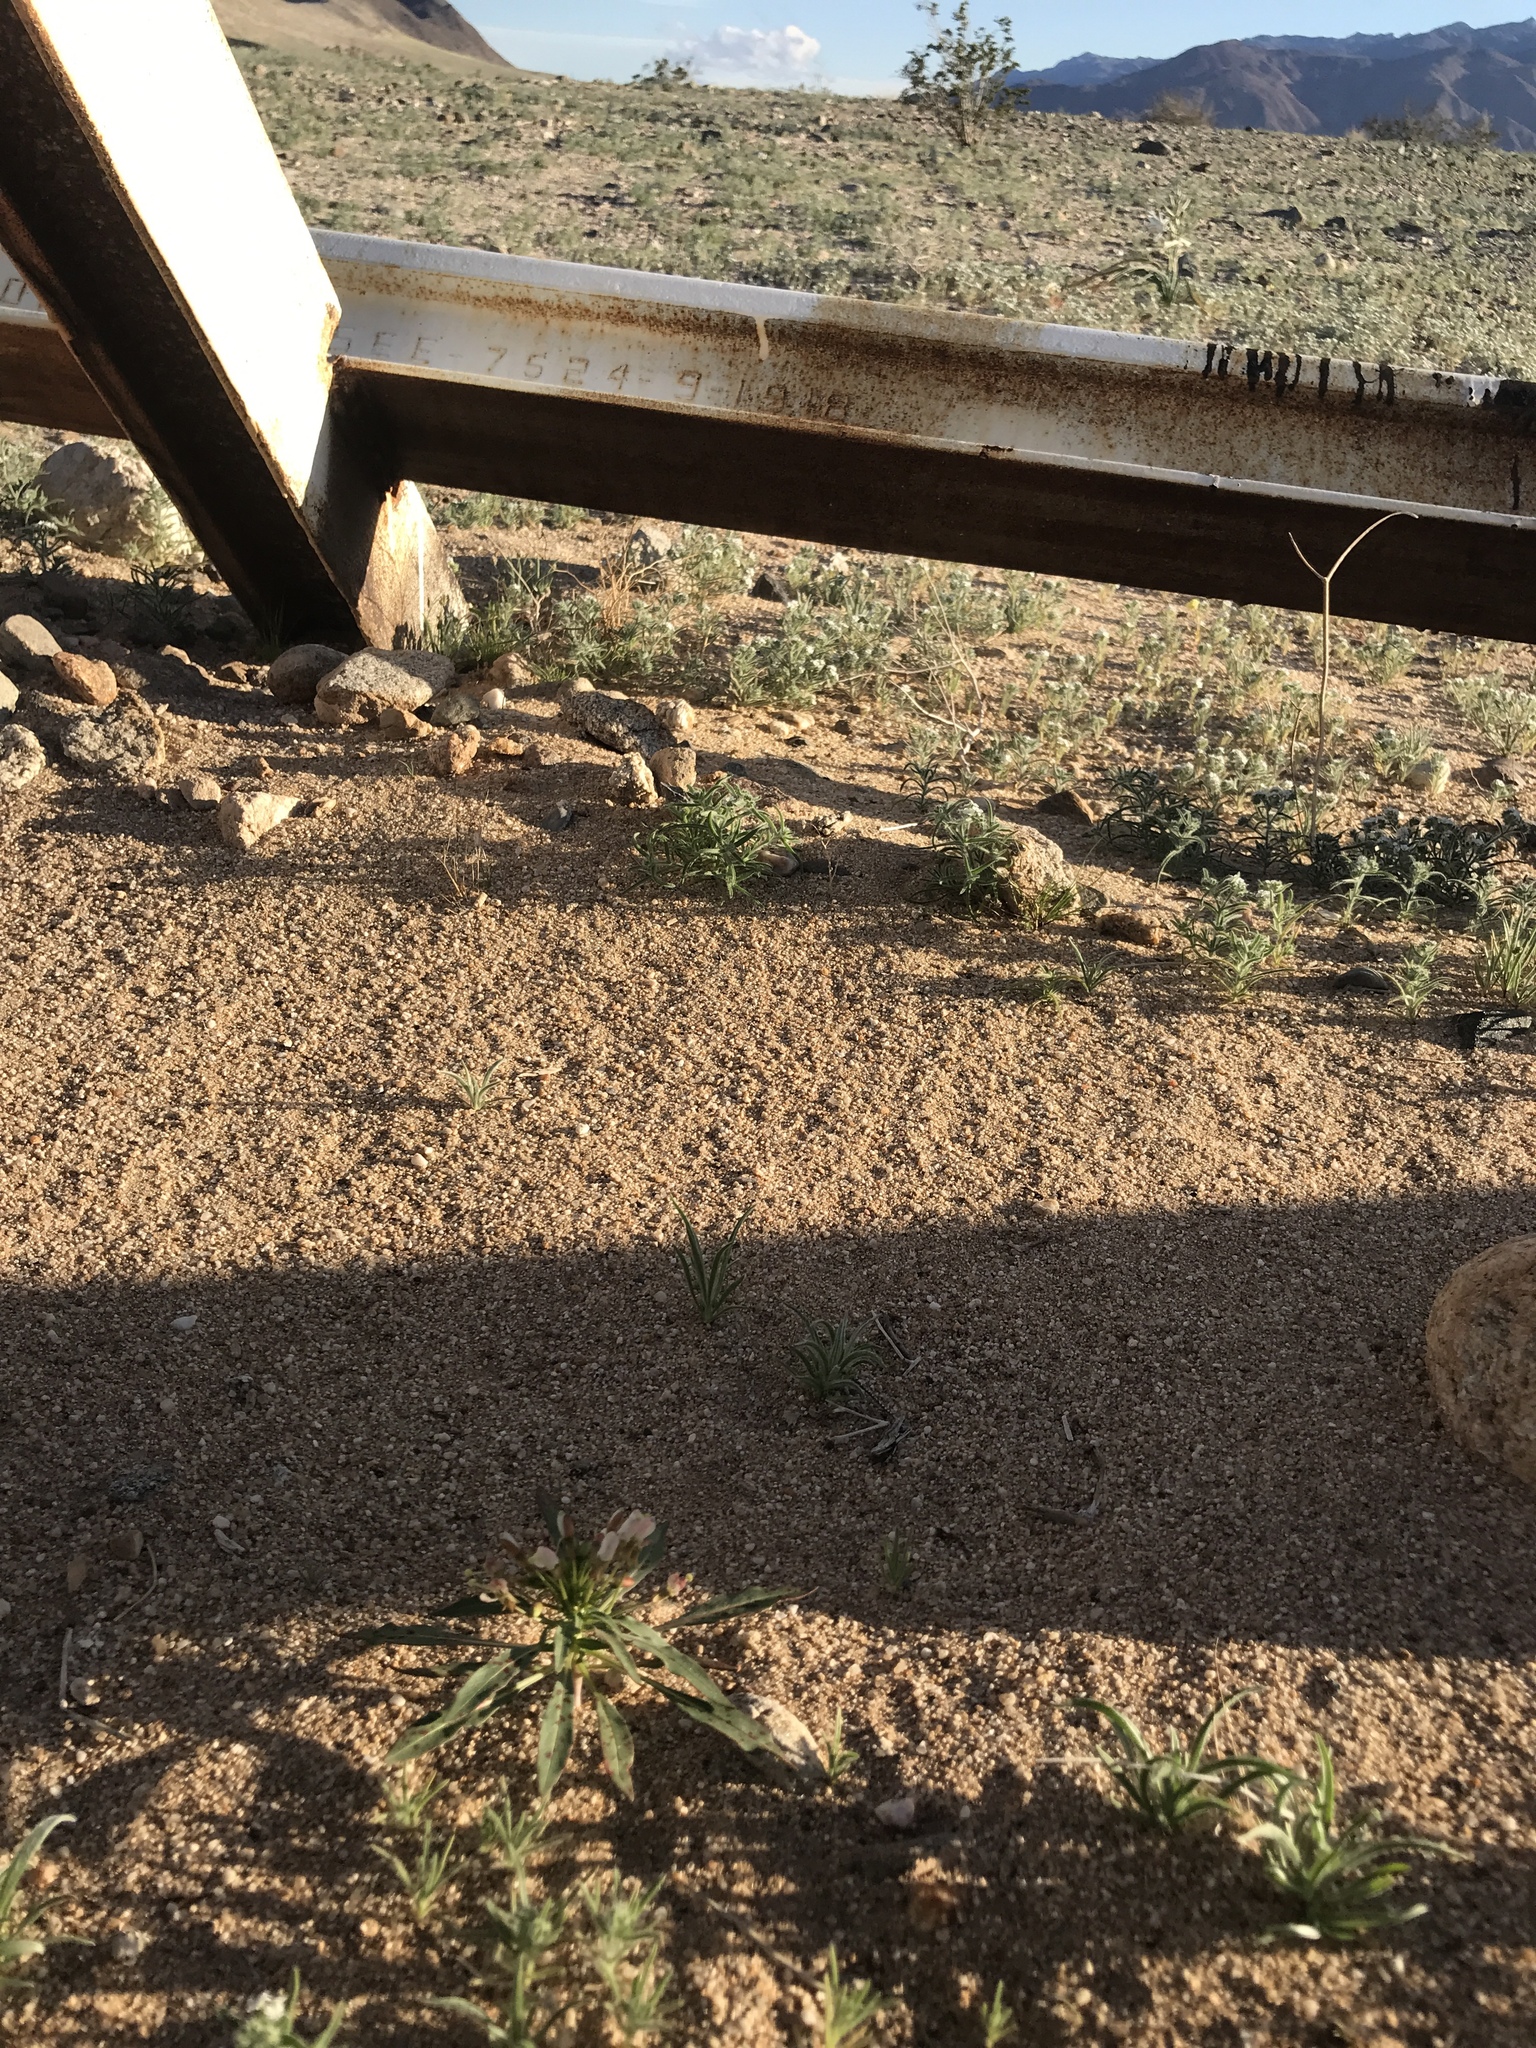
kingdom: Plantae
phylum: Tracheophyta
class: Magnoliopsida
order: Myrtales
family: Onagraceae
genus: Eremothera
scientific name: Eremothera boothii
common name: Booth's evening primrose
